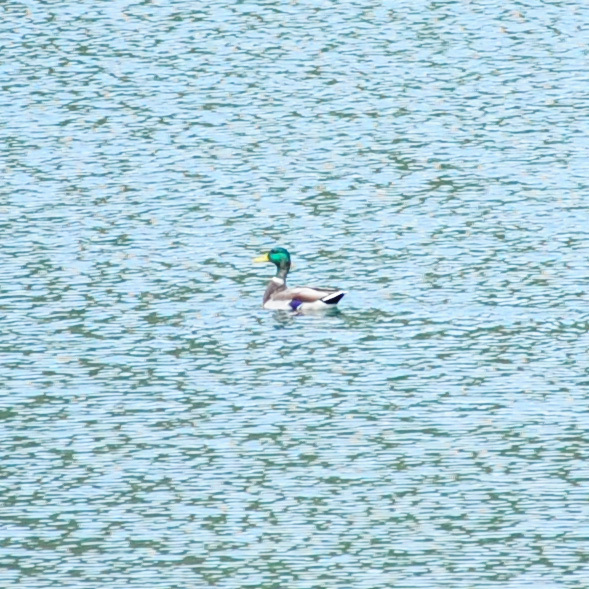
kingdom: Animalia
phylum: Chordata
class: Aves
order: Anseriformes
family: Anatidae
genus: Anas
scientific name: Anas platyrhynchos
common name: Mallard
